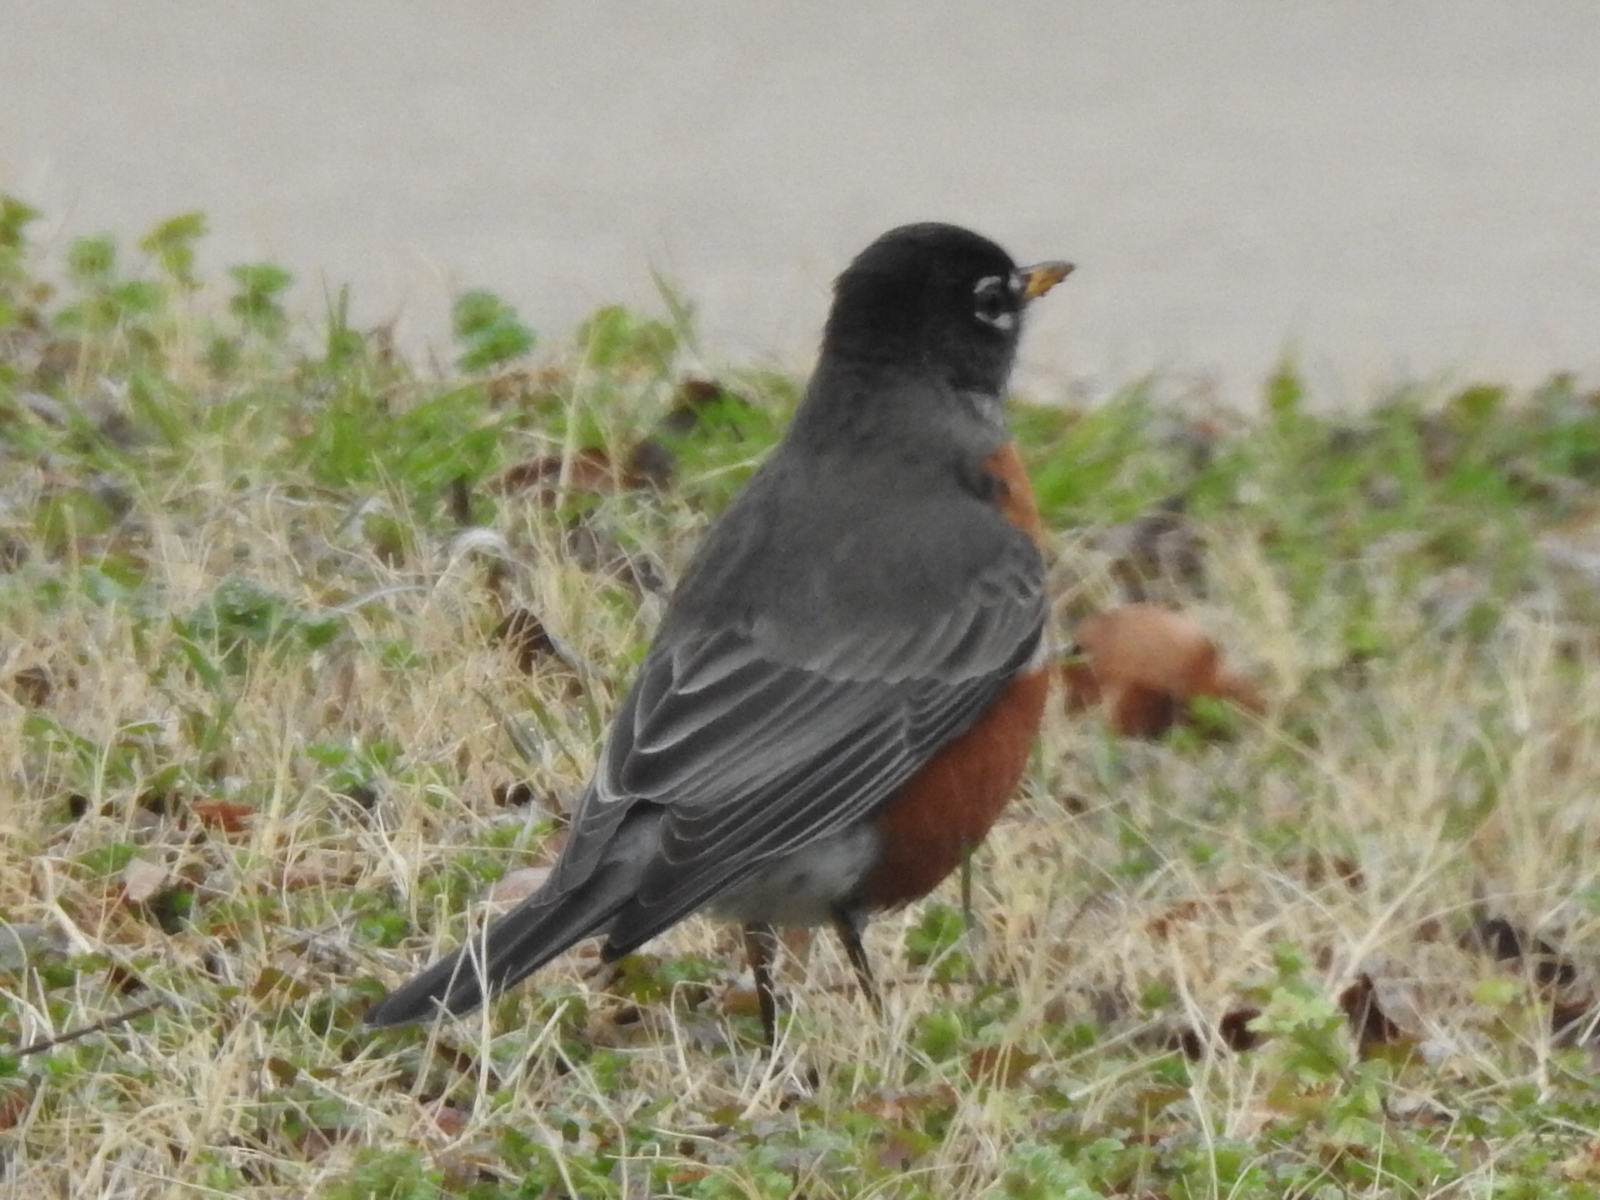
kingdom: Animalia
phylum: Chordata
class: Aves
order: Passeriformes
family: Turdidae
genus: Turdus
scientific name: Turdus migratorius
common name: American robin
